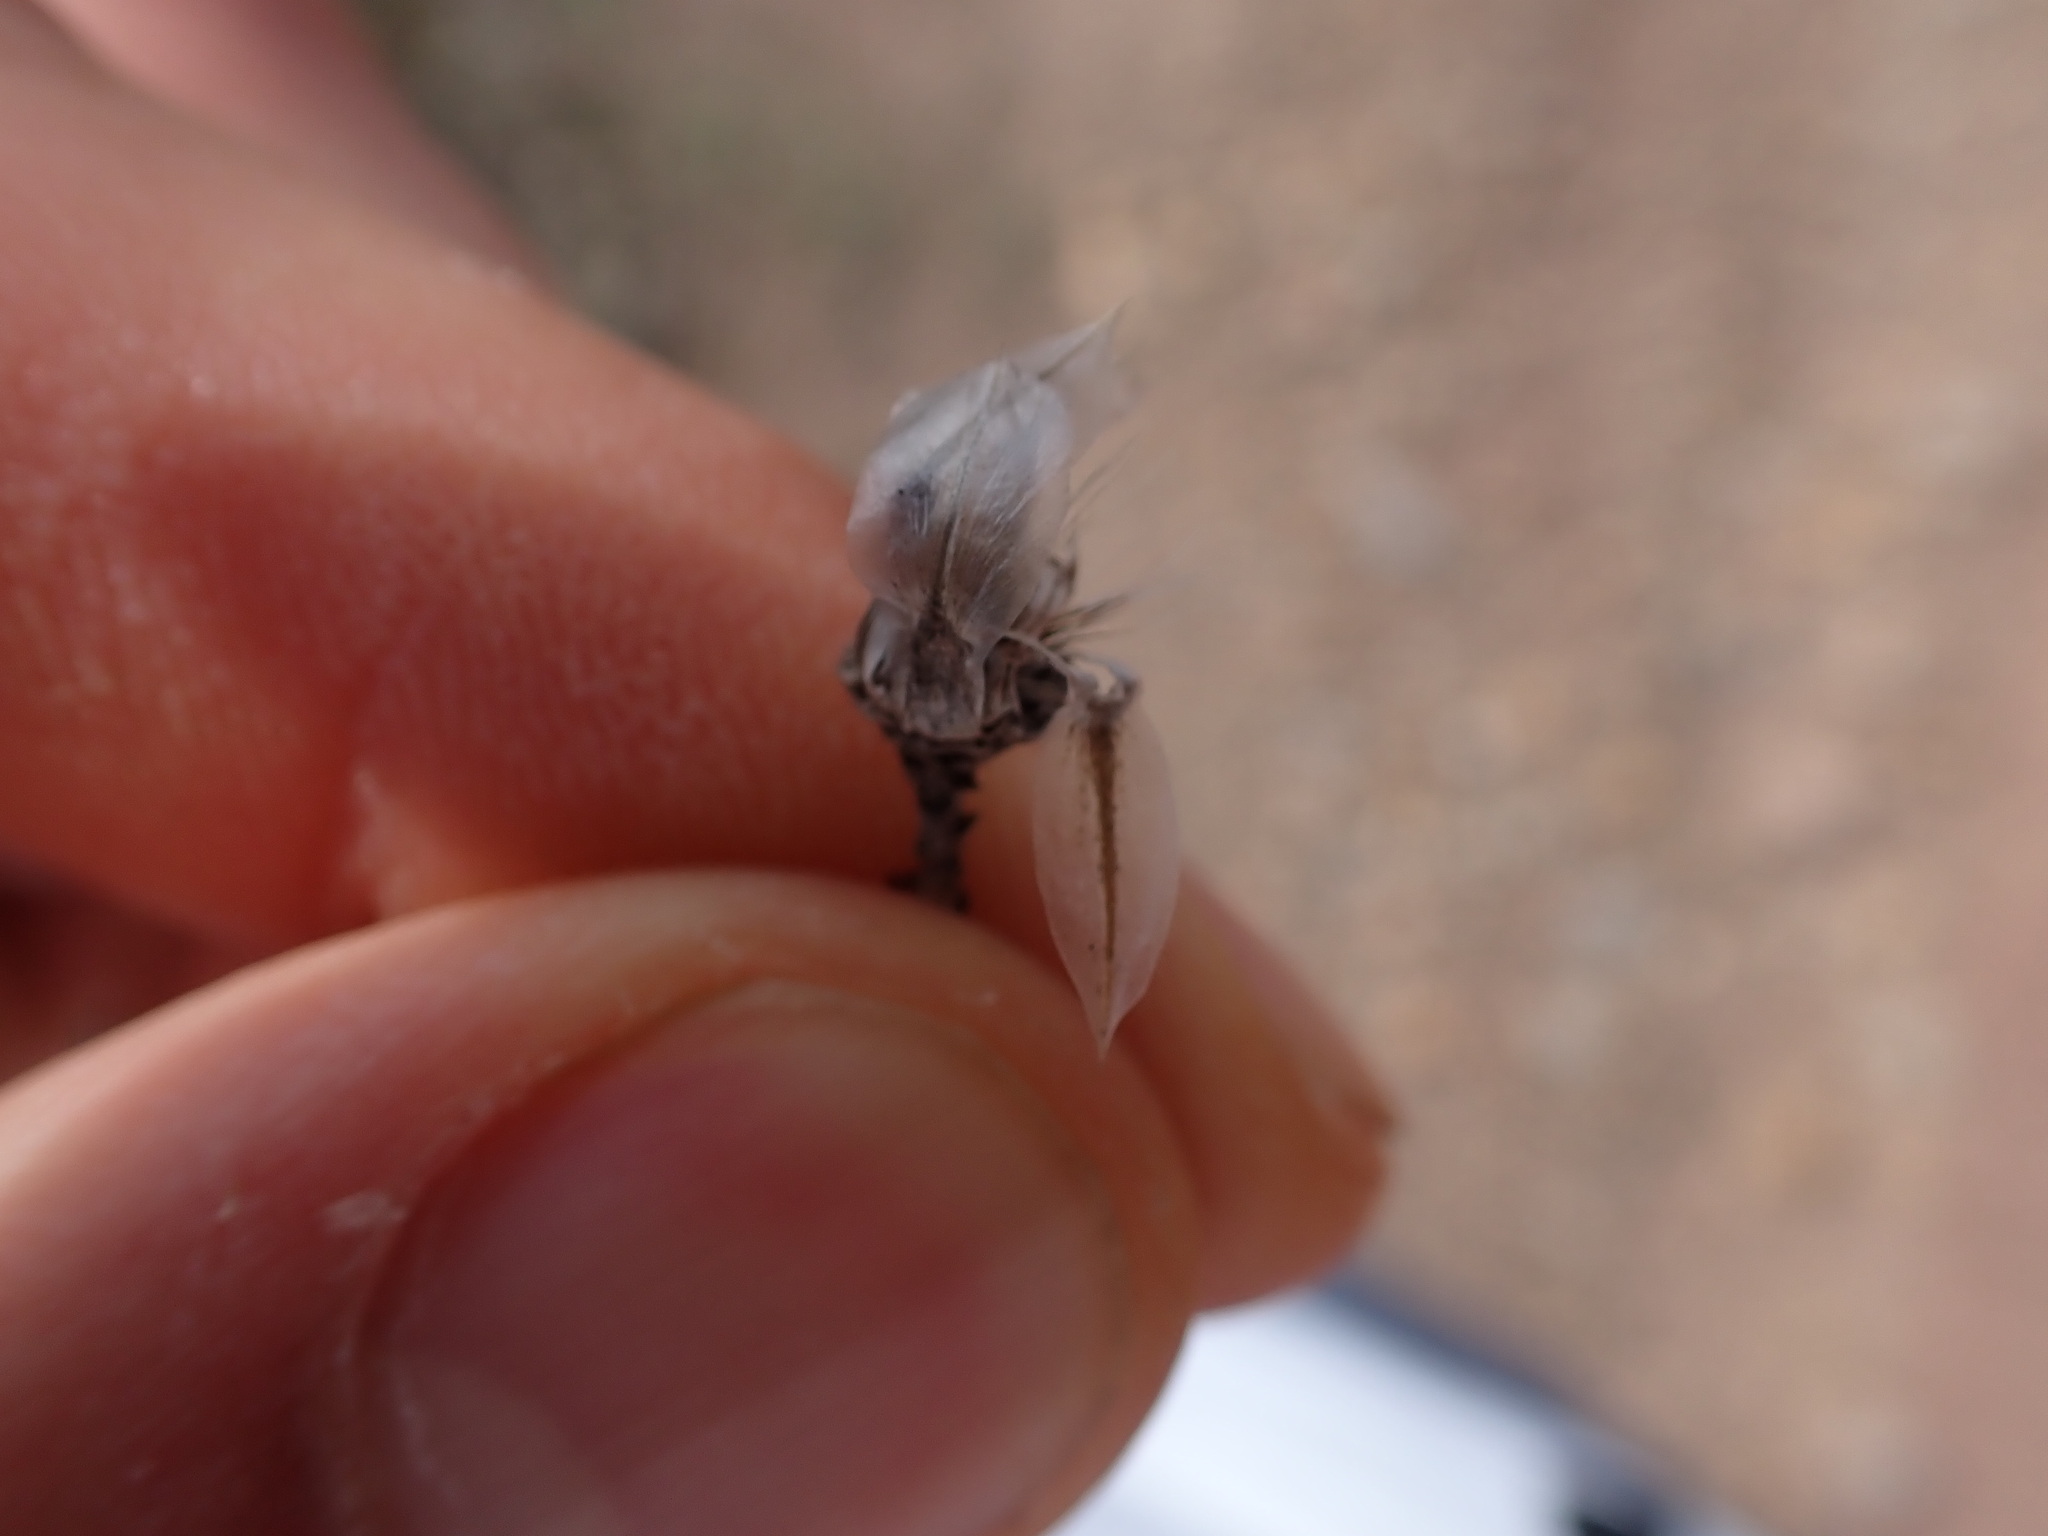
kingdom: Plantae
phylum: Tracheophyta
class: Magnoliopsida
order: Asterales
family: Asteraceae
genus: Catananche
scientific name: Catananche caerulea
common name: Blue cupidone
